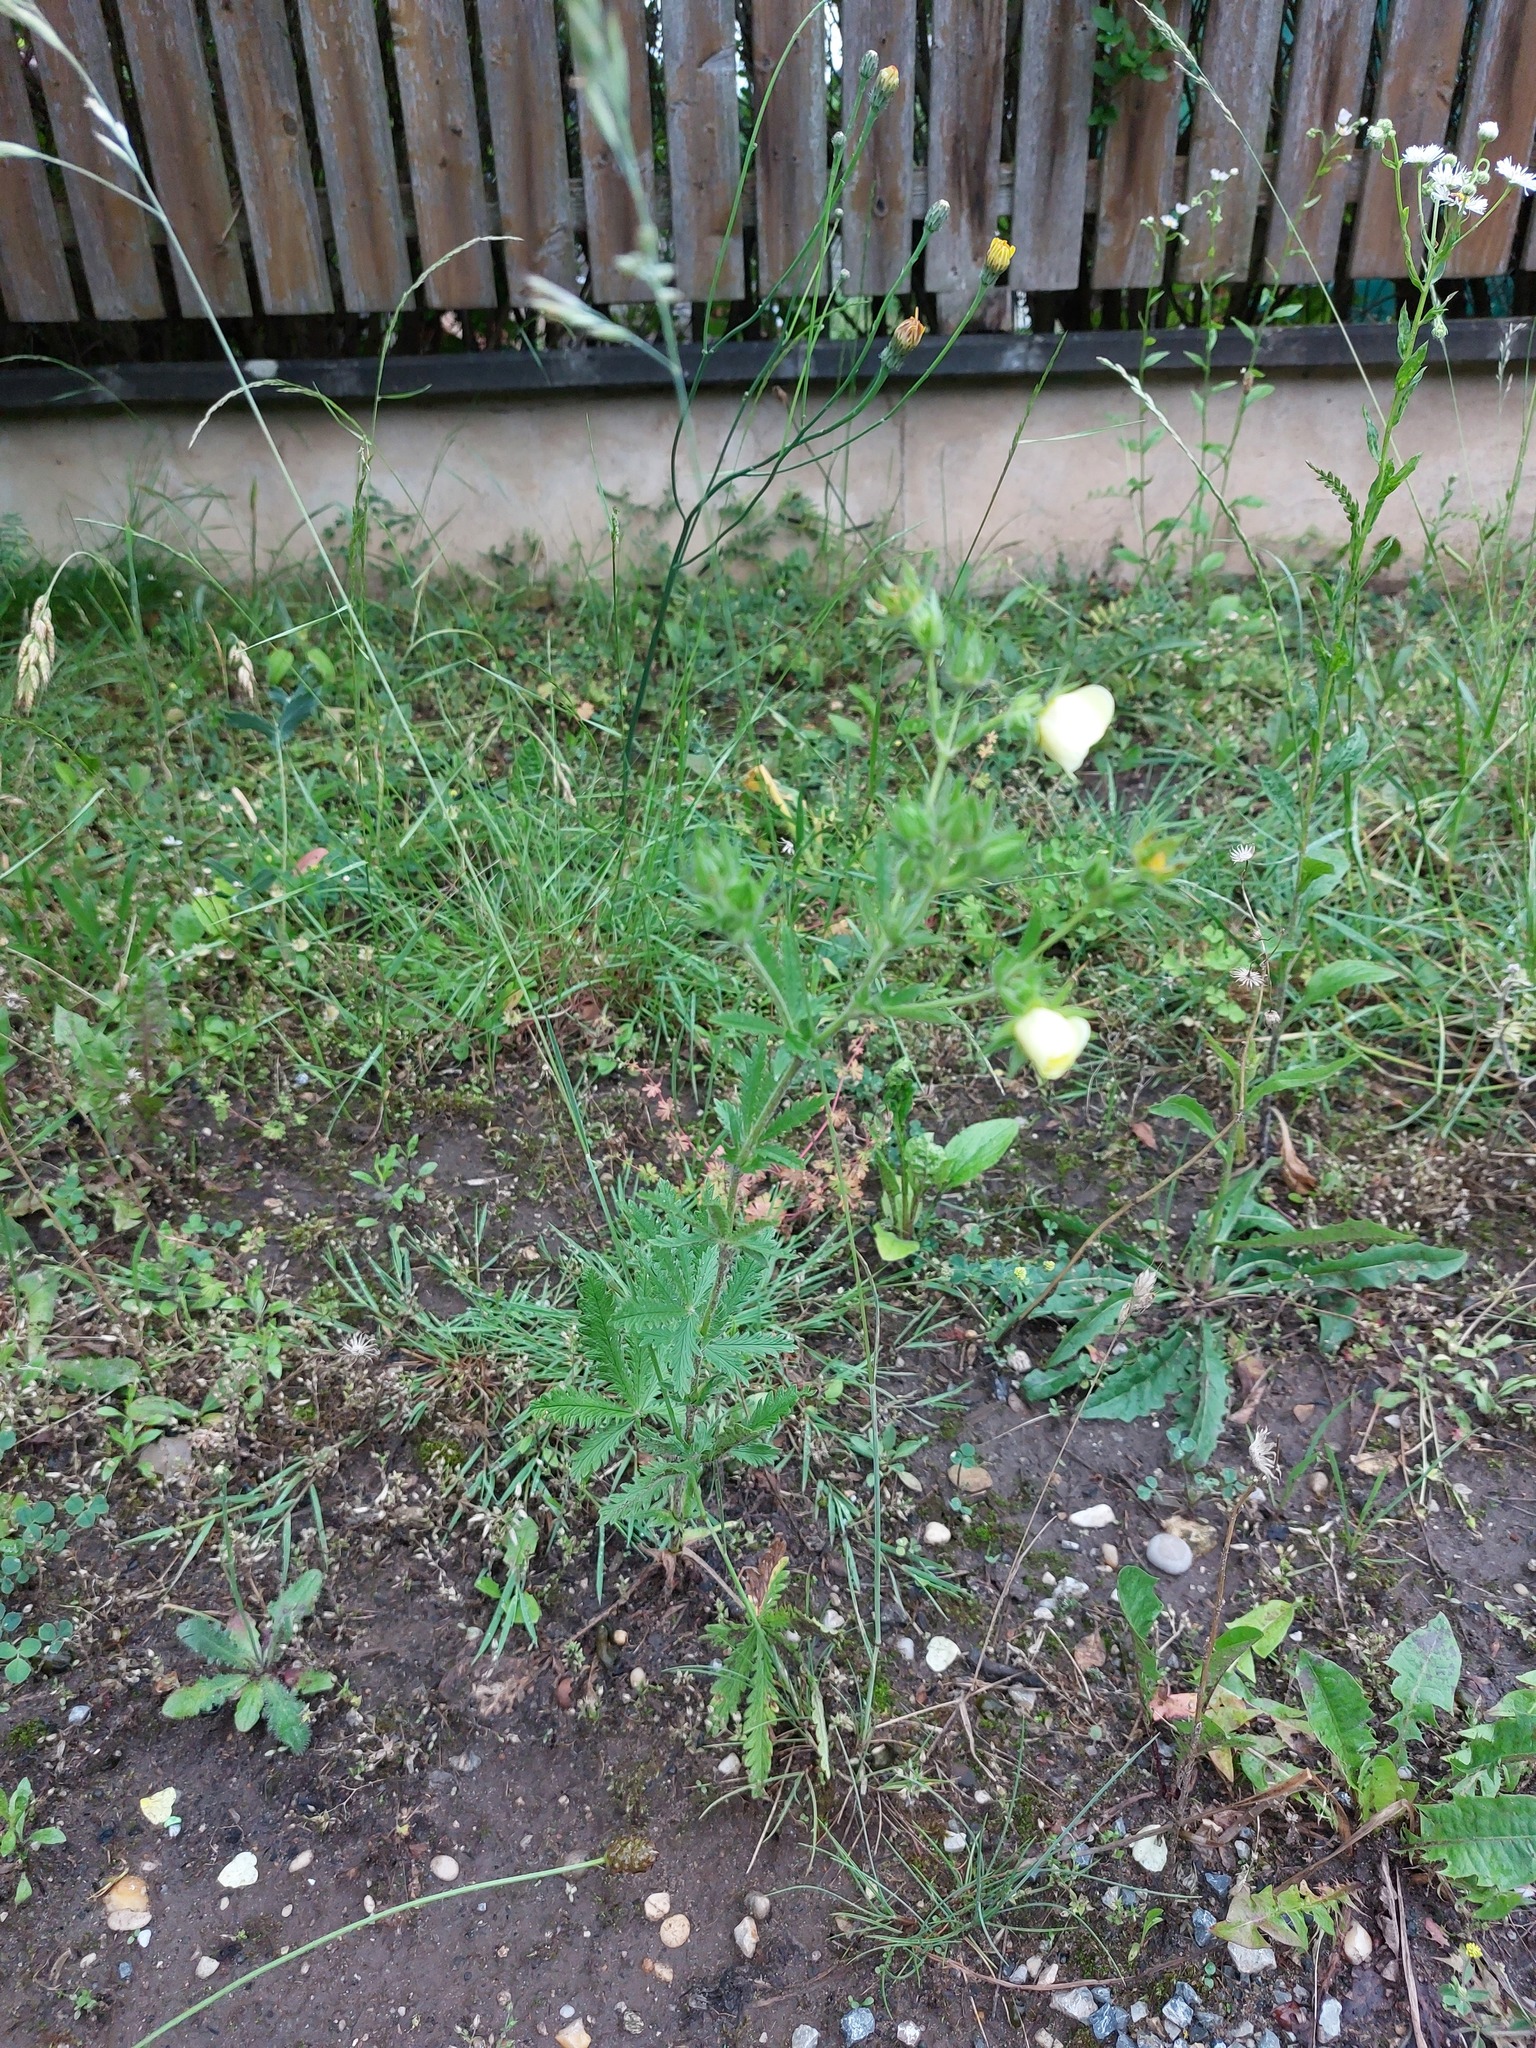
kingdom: Plantae
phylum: Tracheophyta
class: Magnoliopsida
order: Rosales
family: Rosaceae
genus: Potentilla
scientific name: Potentilla recta
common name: Sulphur cinquefoil
